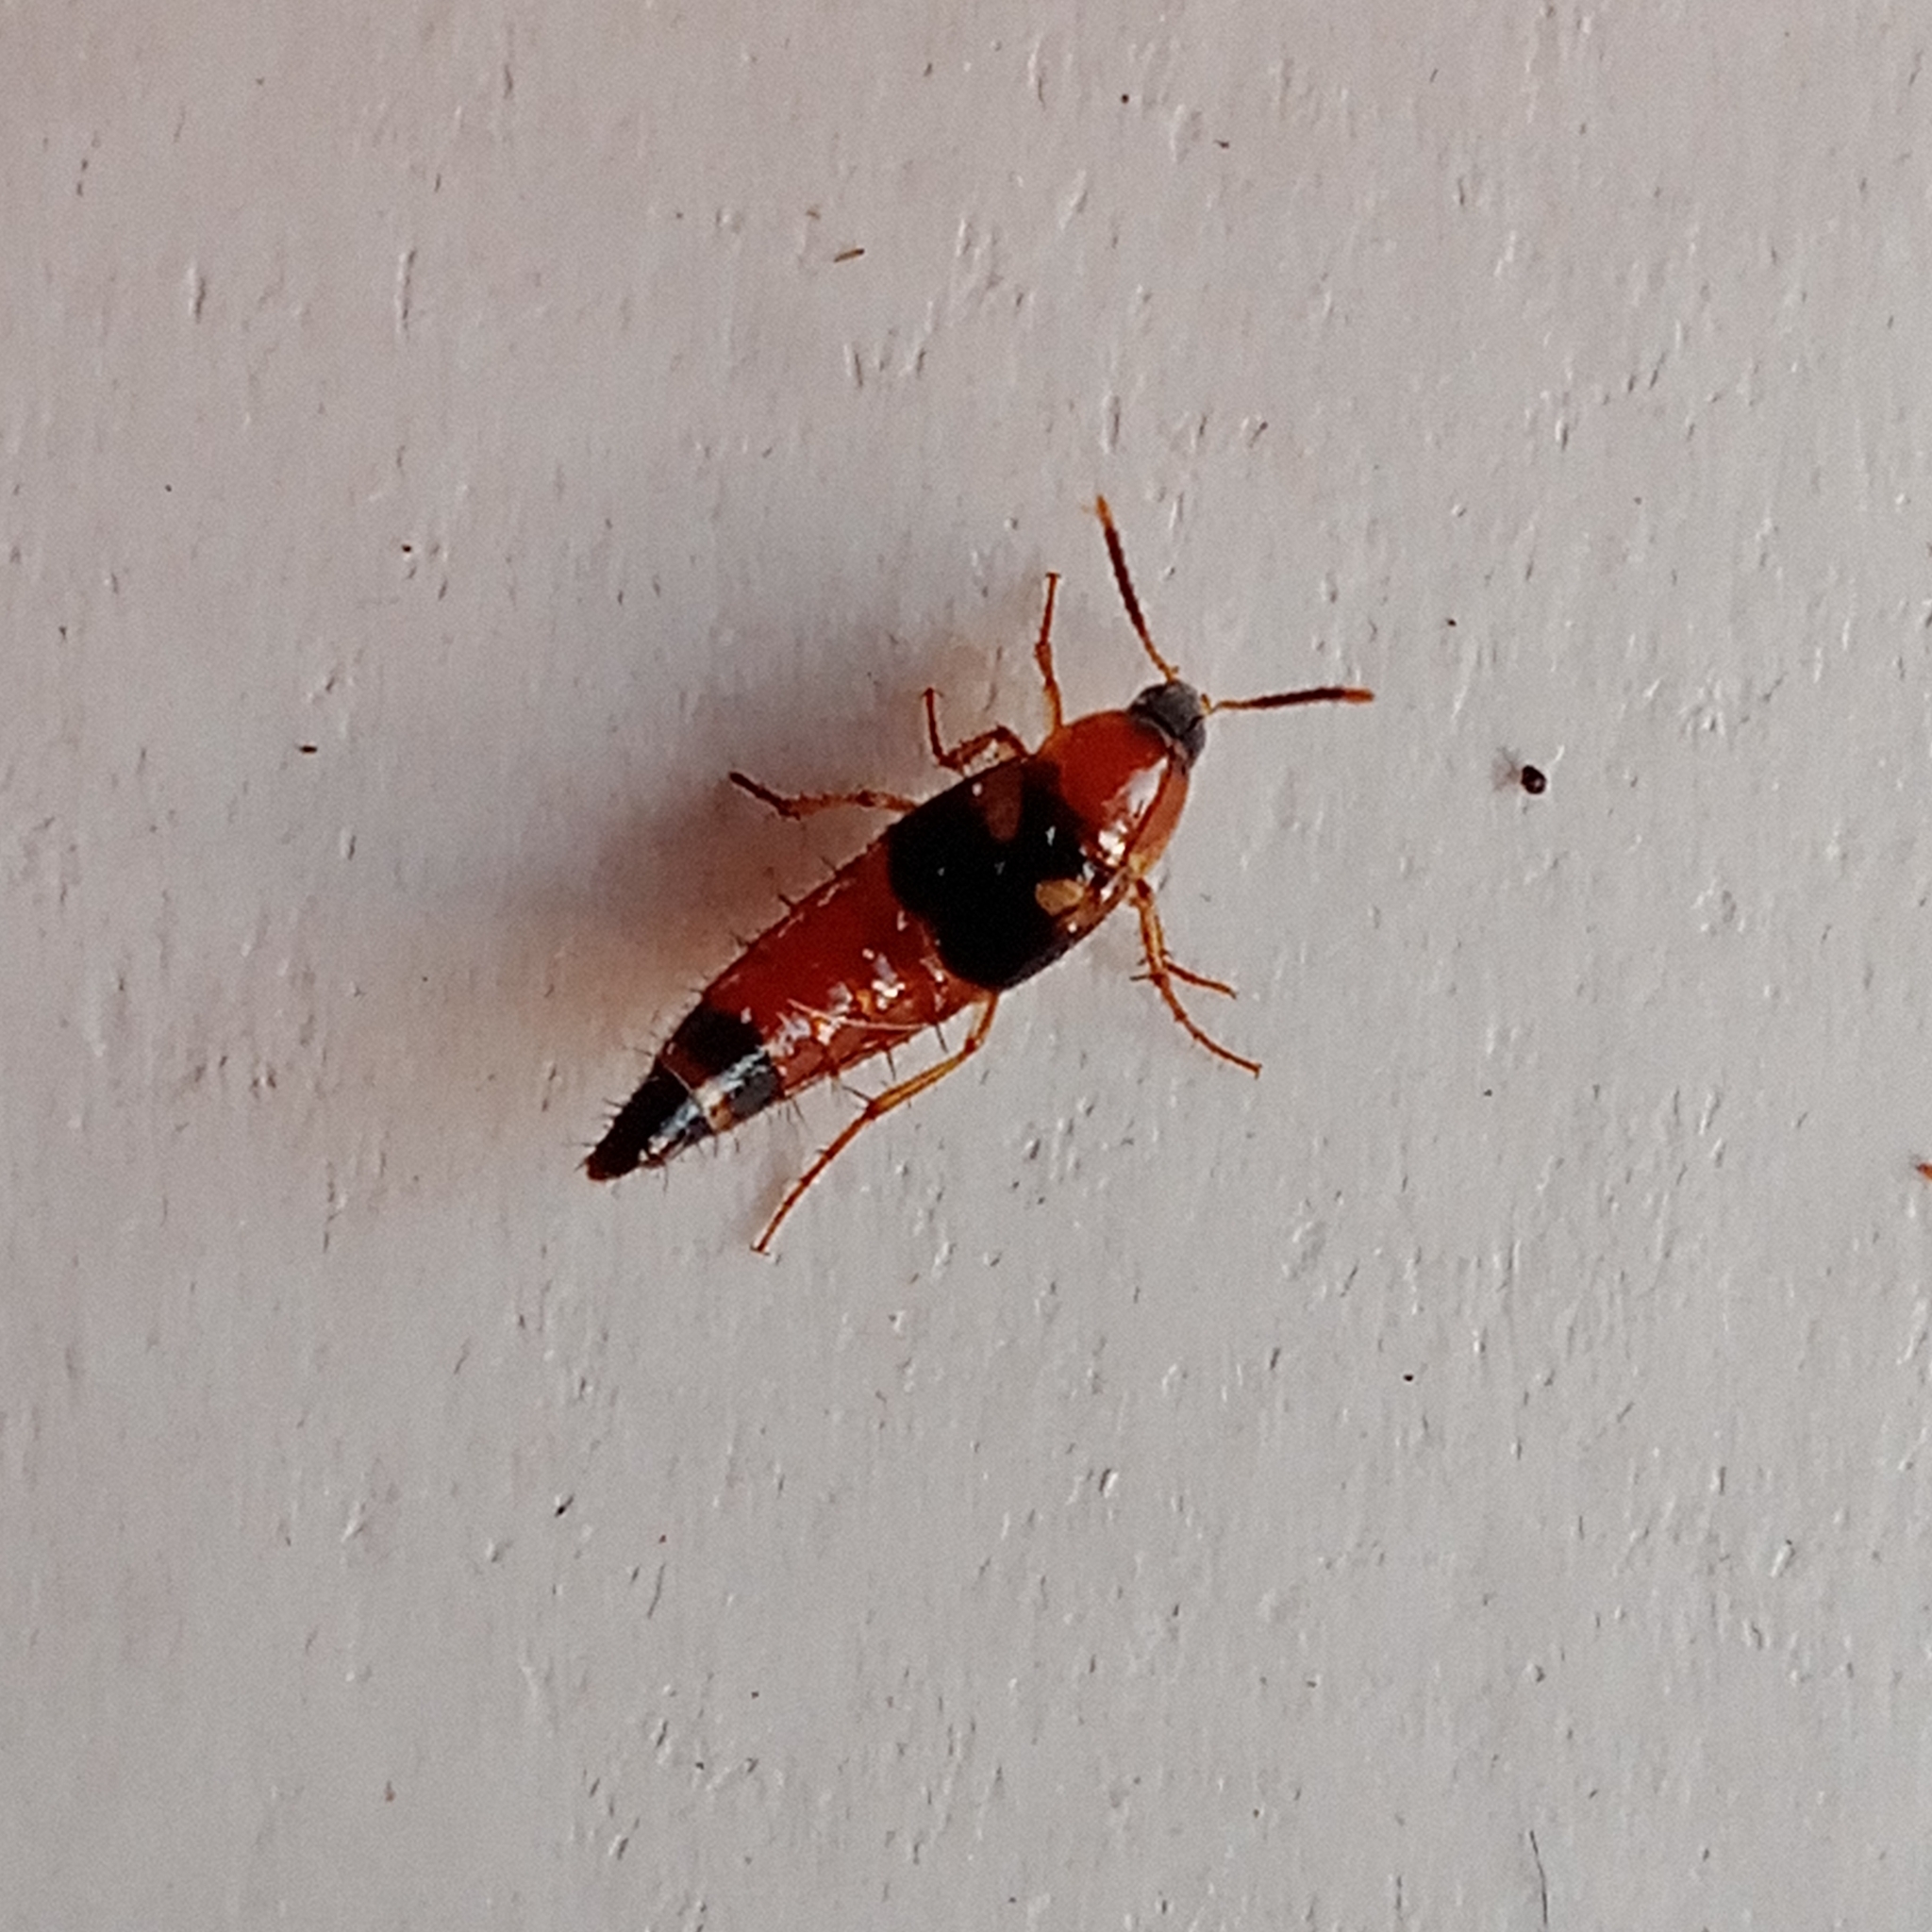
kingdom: Animalia
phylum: Arthropoda
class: Insecta
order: Coleoptera
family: Staphylinidae
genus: Bobitobus
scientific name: Bobitobus lunulatus
